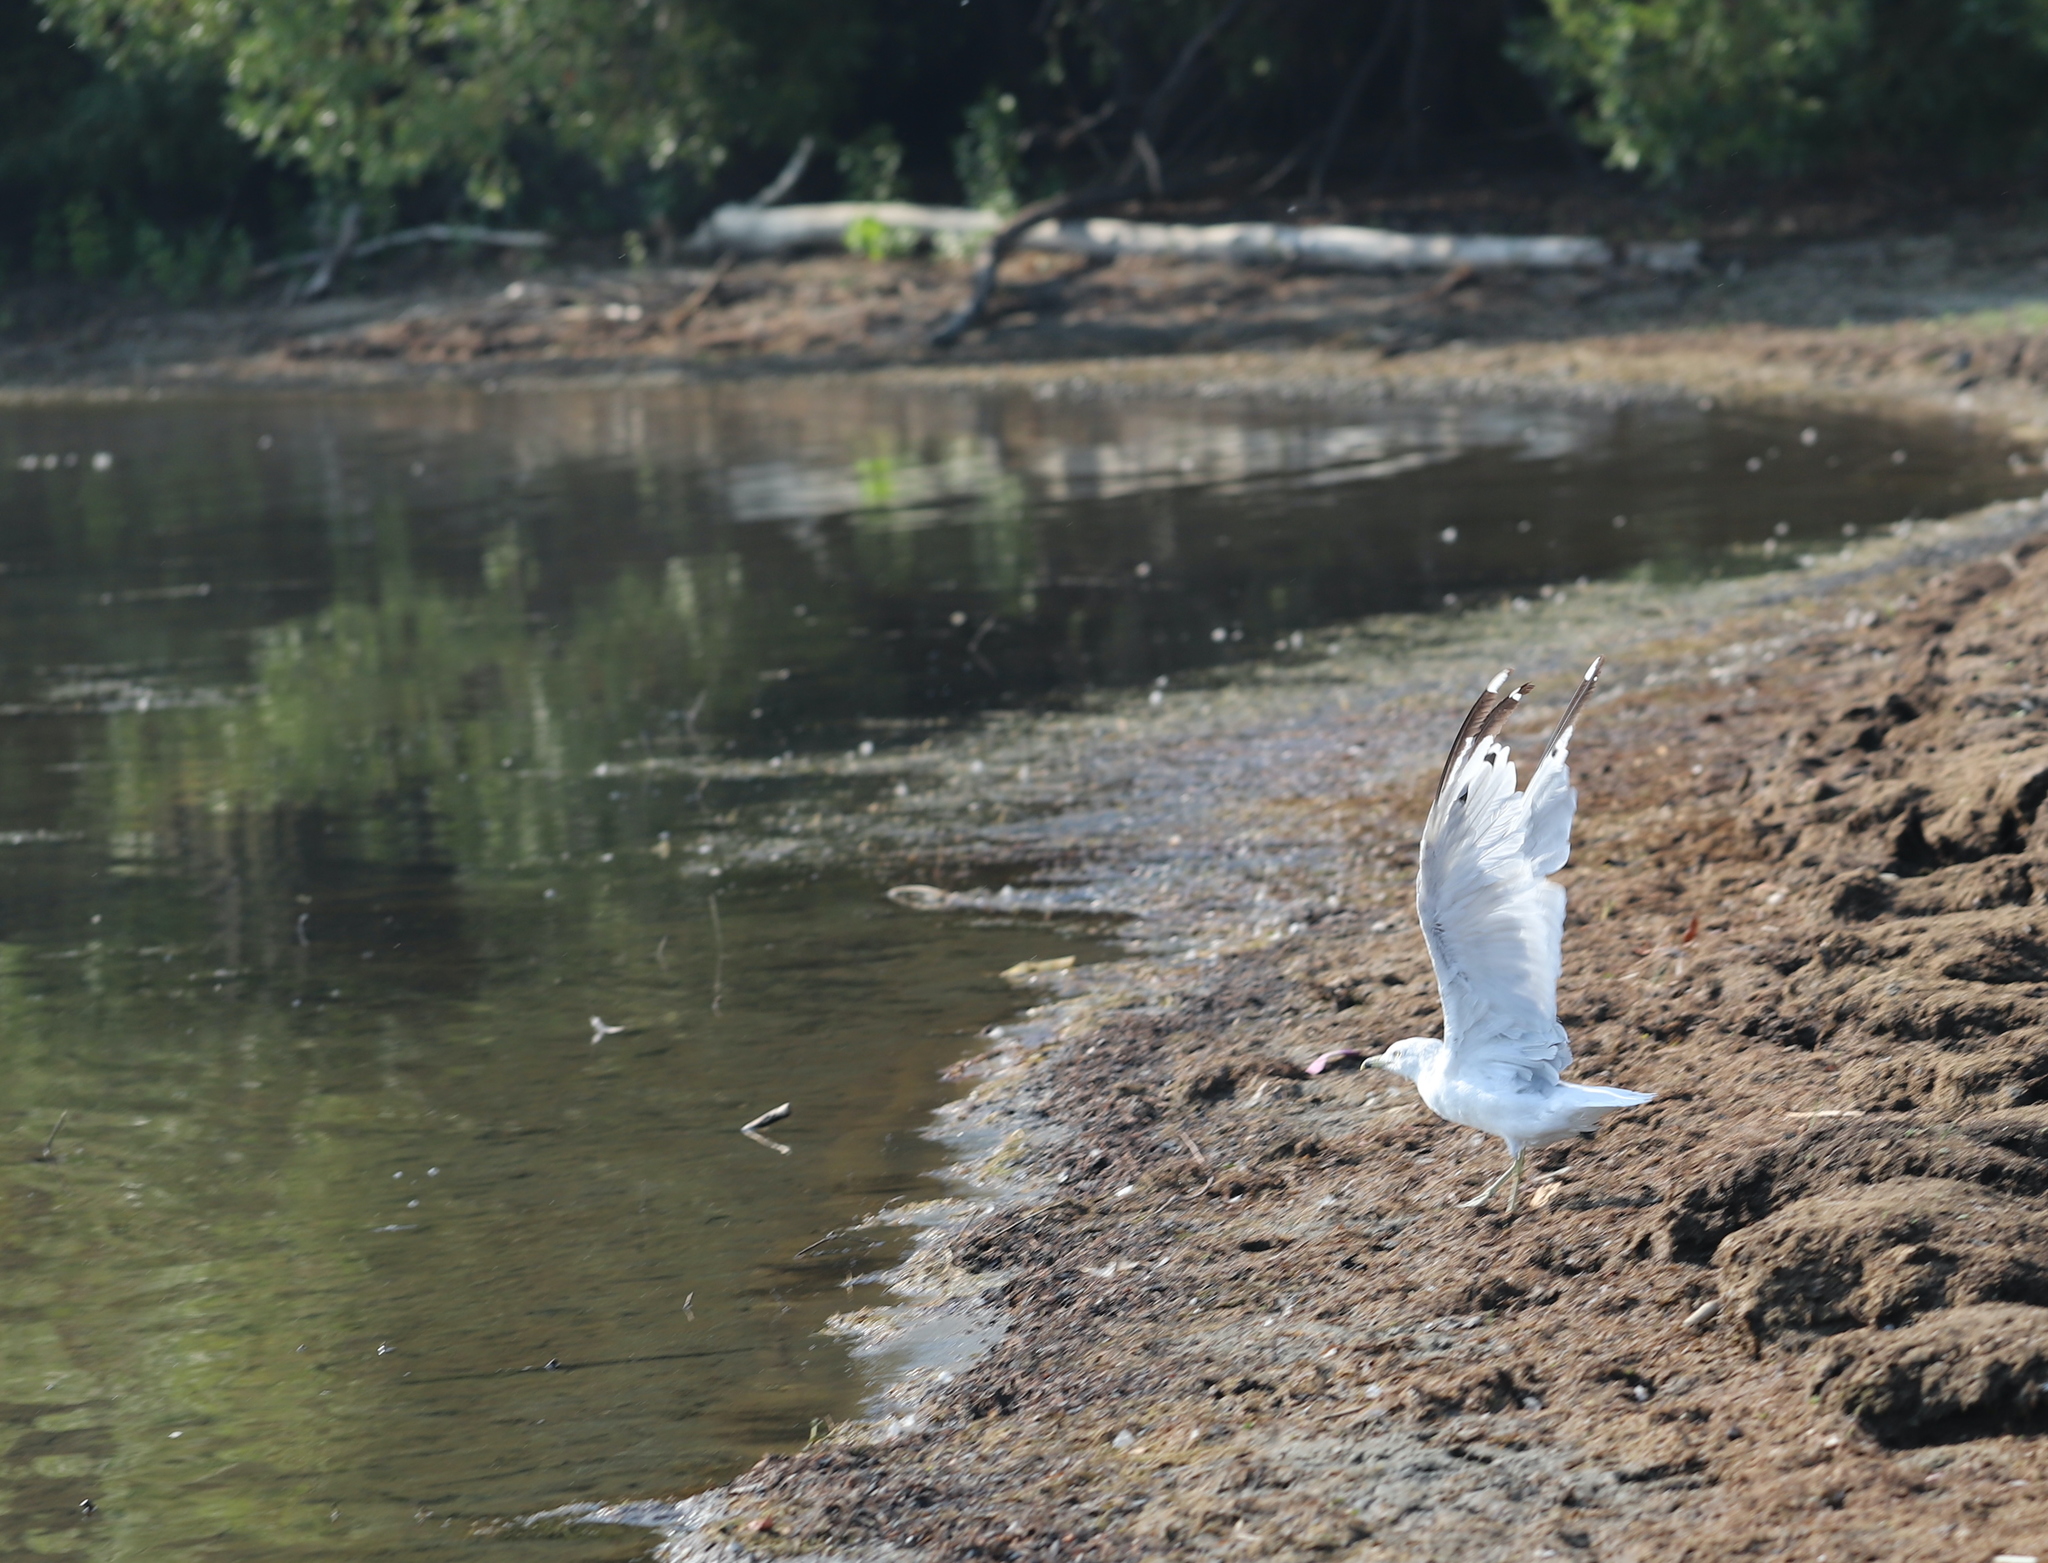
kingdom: Animalia
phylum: Chordata
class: Aves
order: Charadriiformes
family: Laridae
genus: Larus
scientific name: Larus delawarensis
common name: Ring-billed gull
